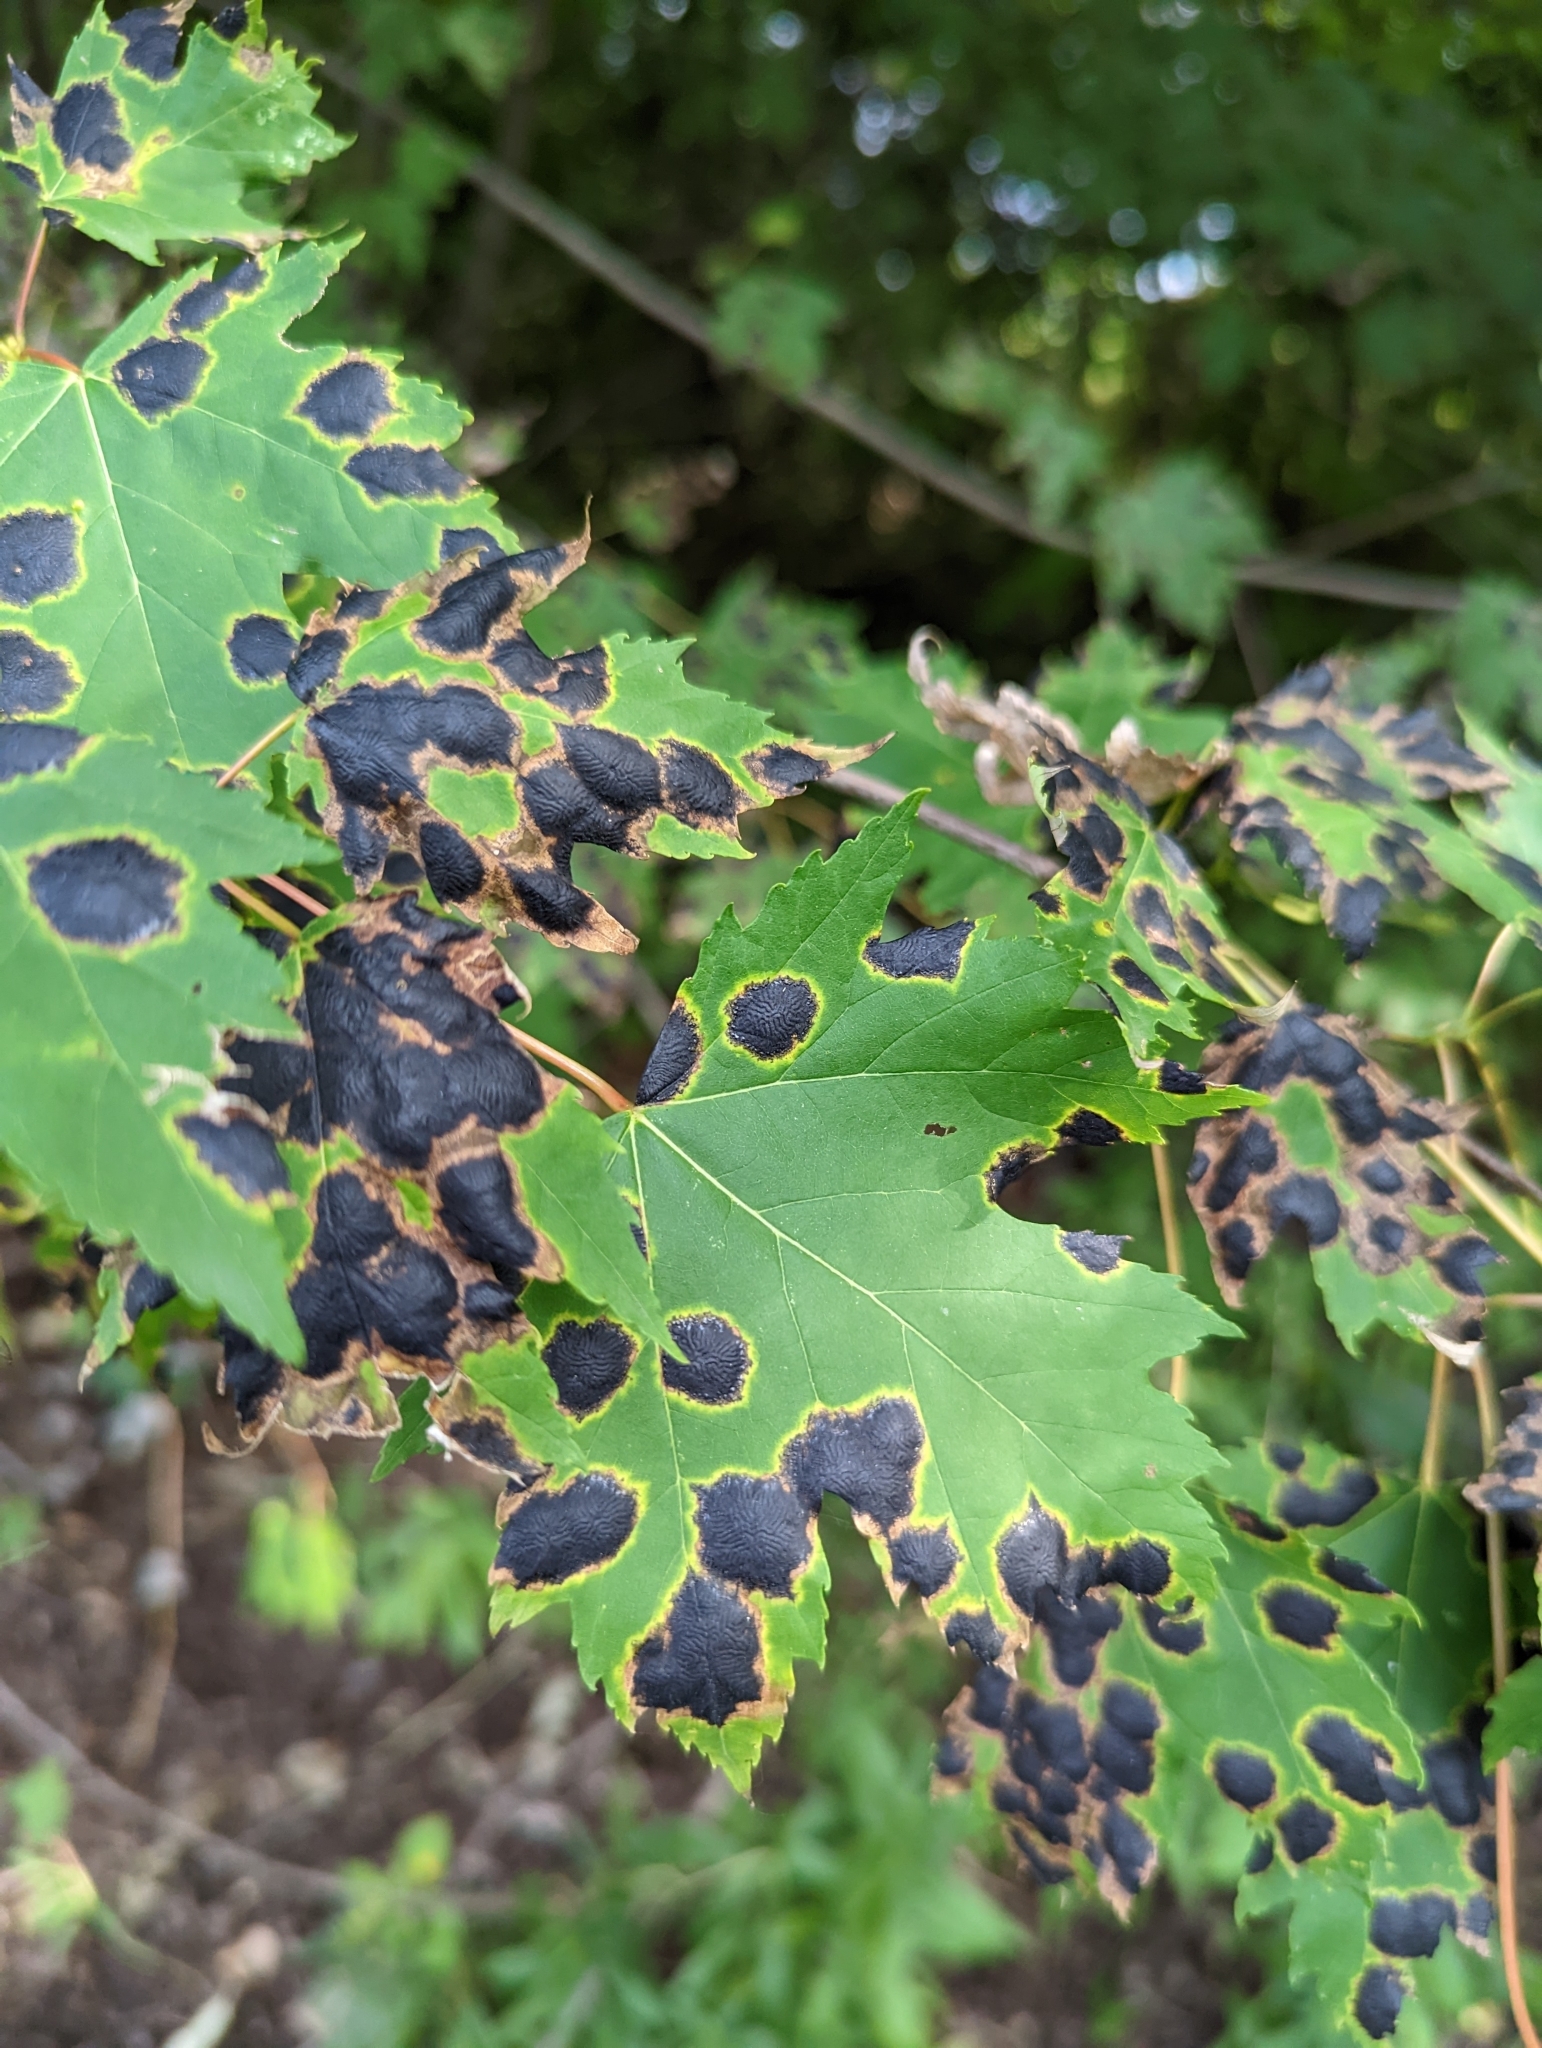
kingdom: Fungi
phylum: Ascomycota
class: Leotiomycetes
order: Rhytismatales
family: Rhytismataceae
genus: Rhytisma
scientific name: Rhytisma americanum
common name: American tar spot
